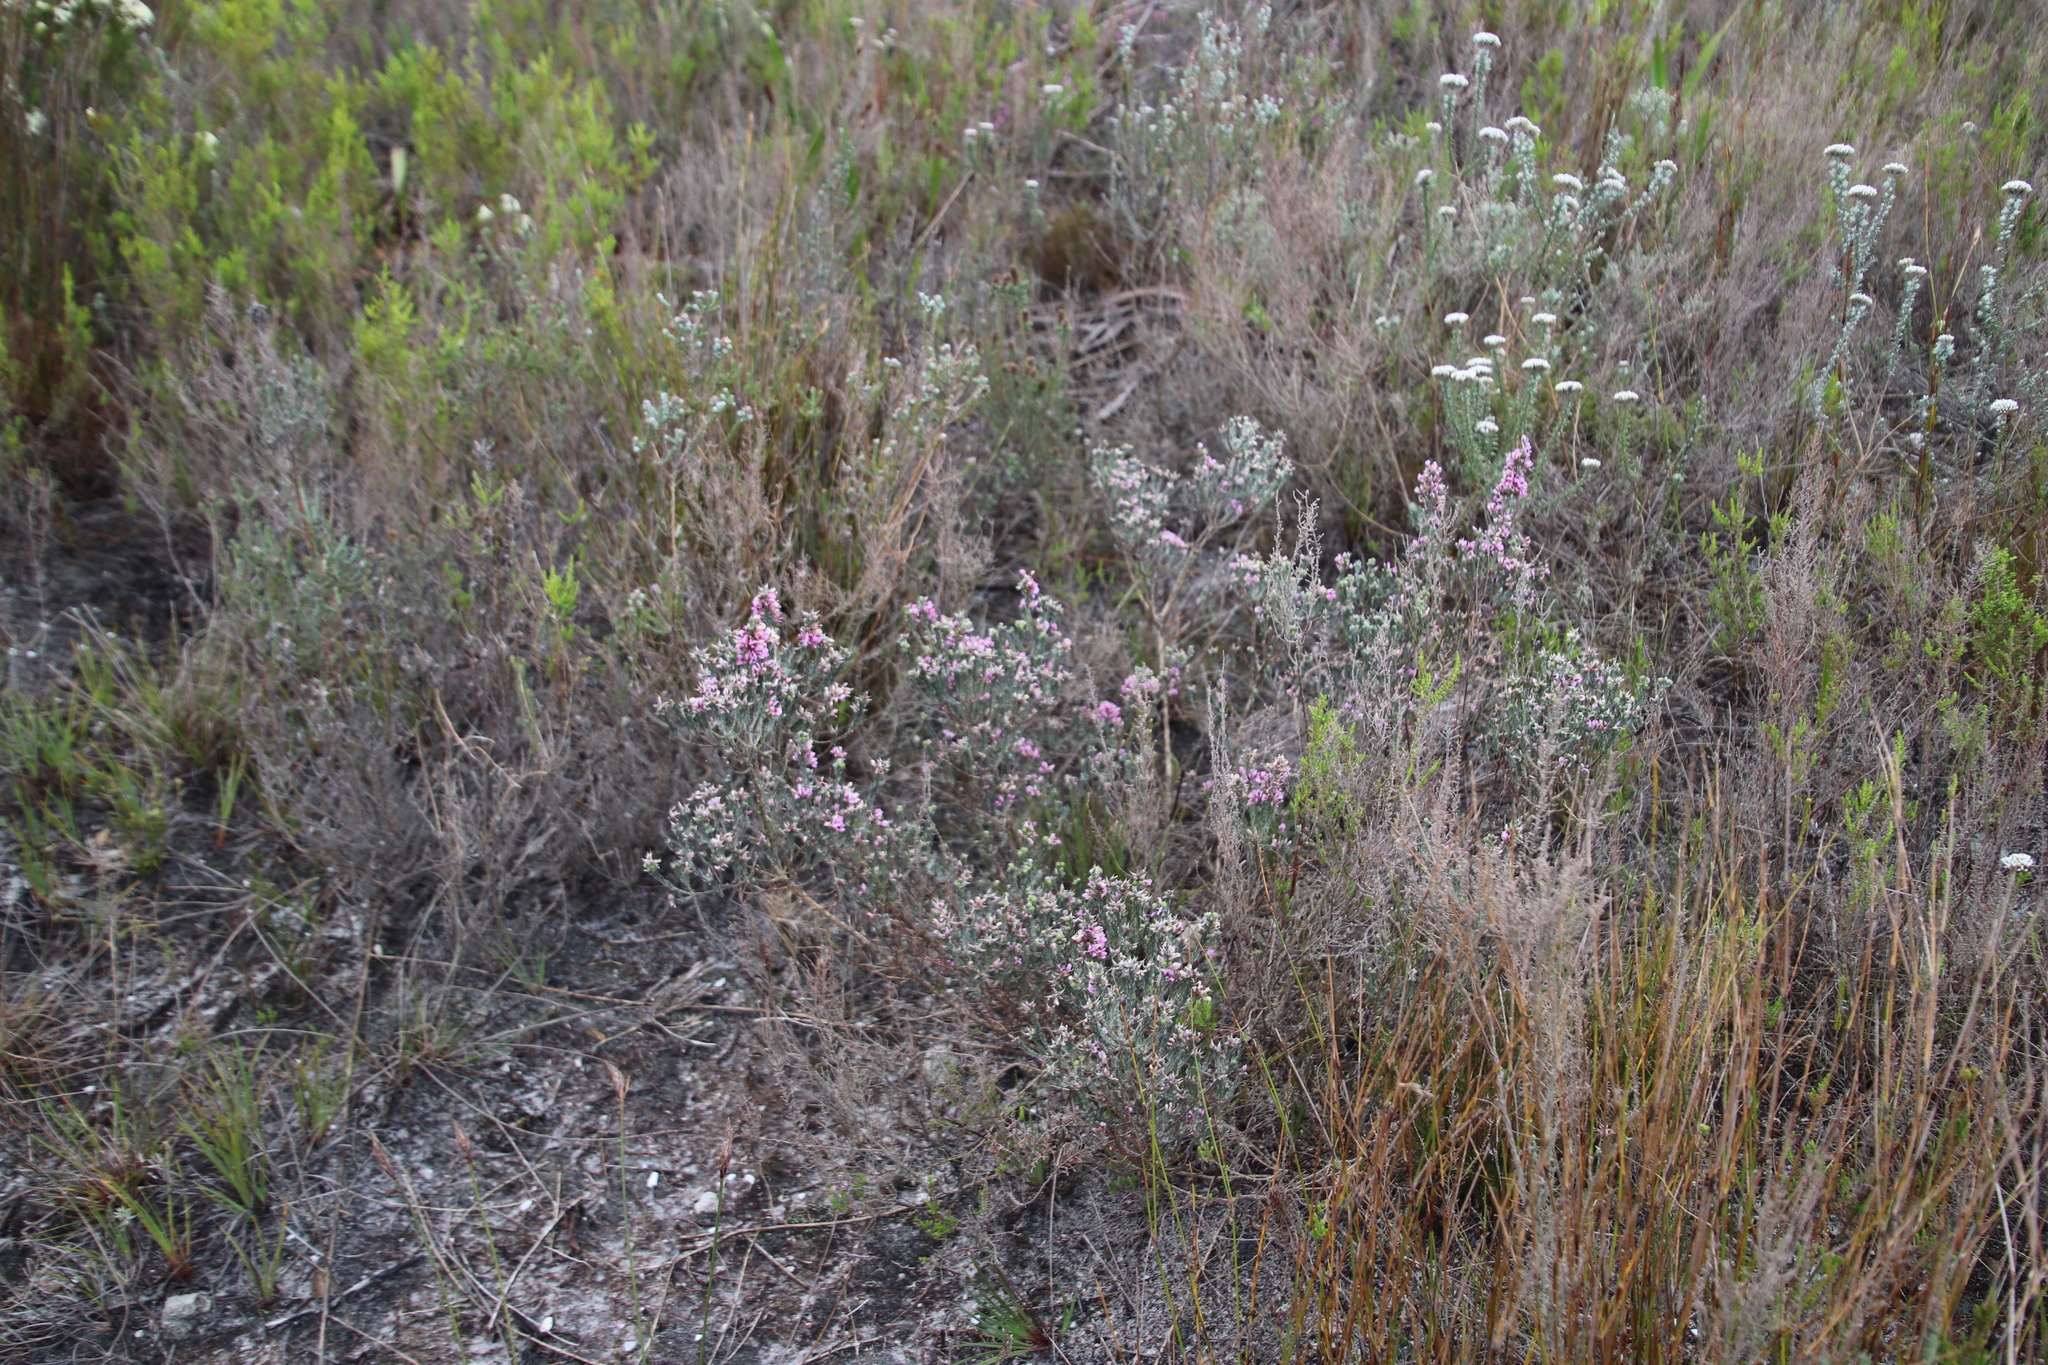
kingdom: Plantae
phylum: Tracheophyta
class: Magnoliopsida
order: Fabales
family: Fabaceae
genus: Amphithalea
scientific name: Amphithalea ericifolia
